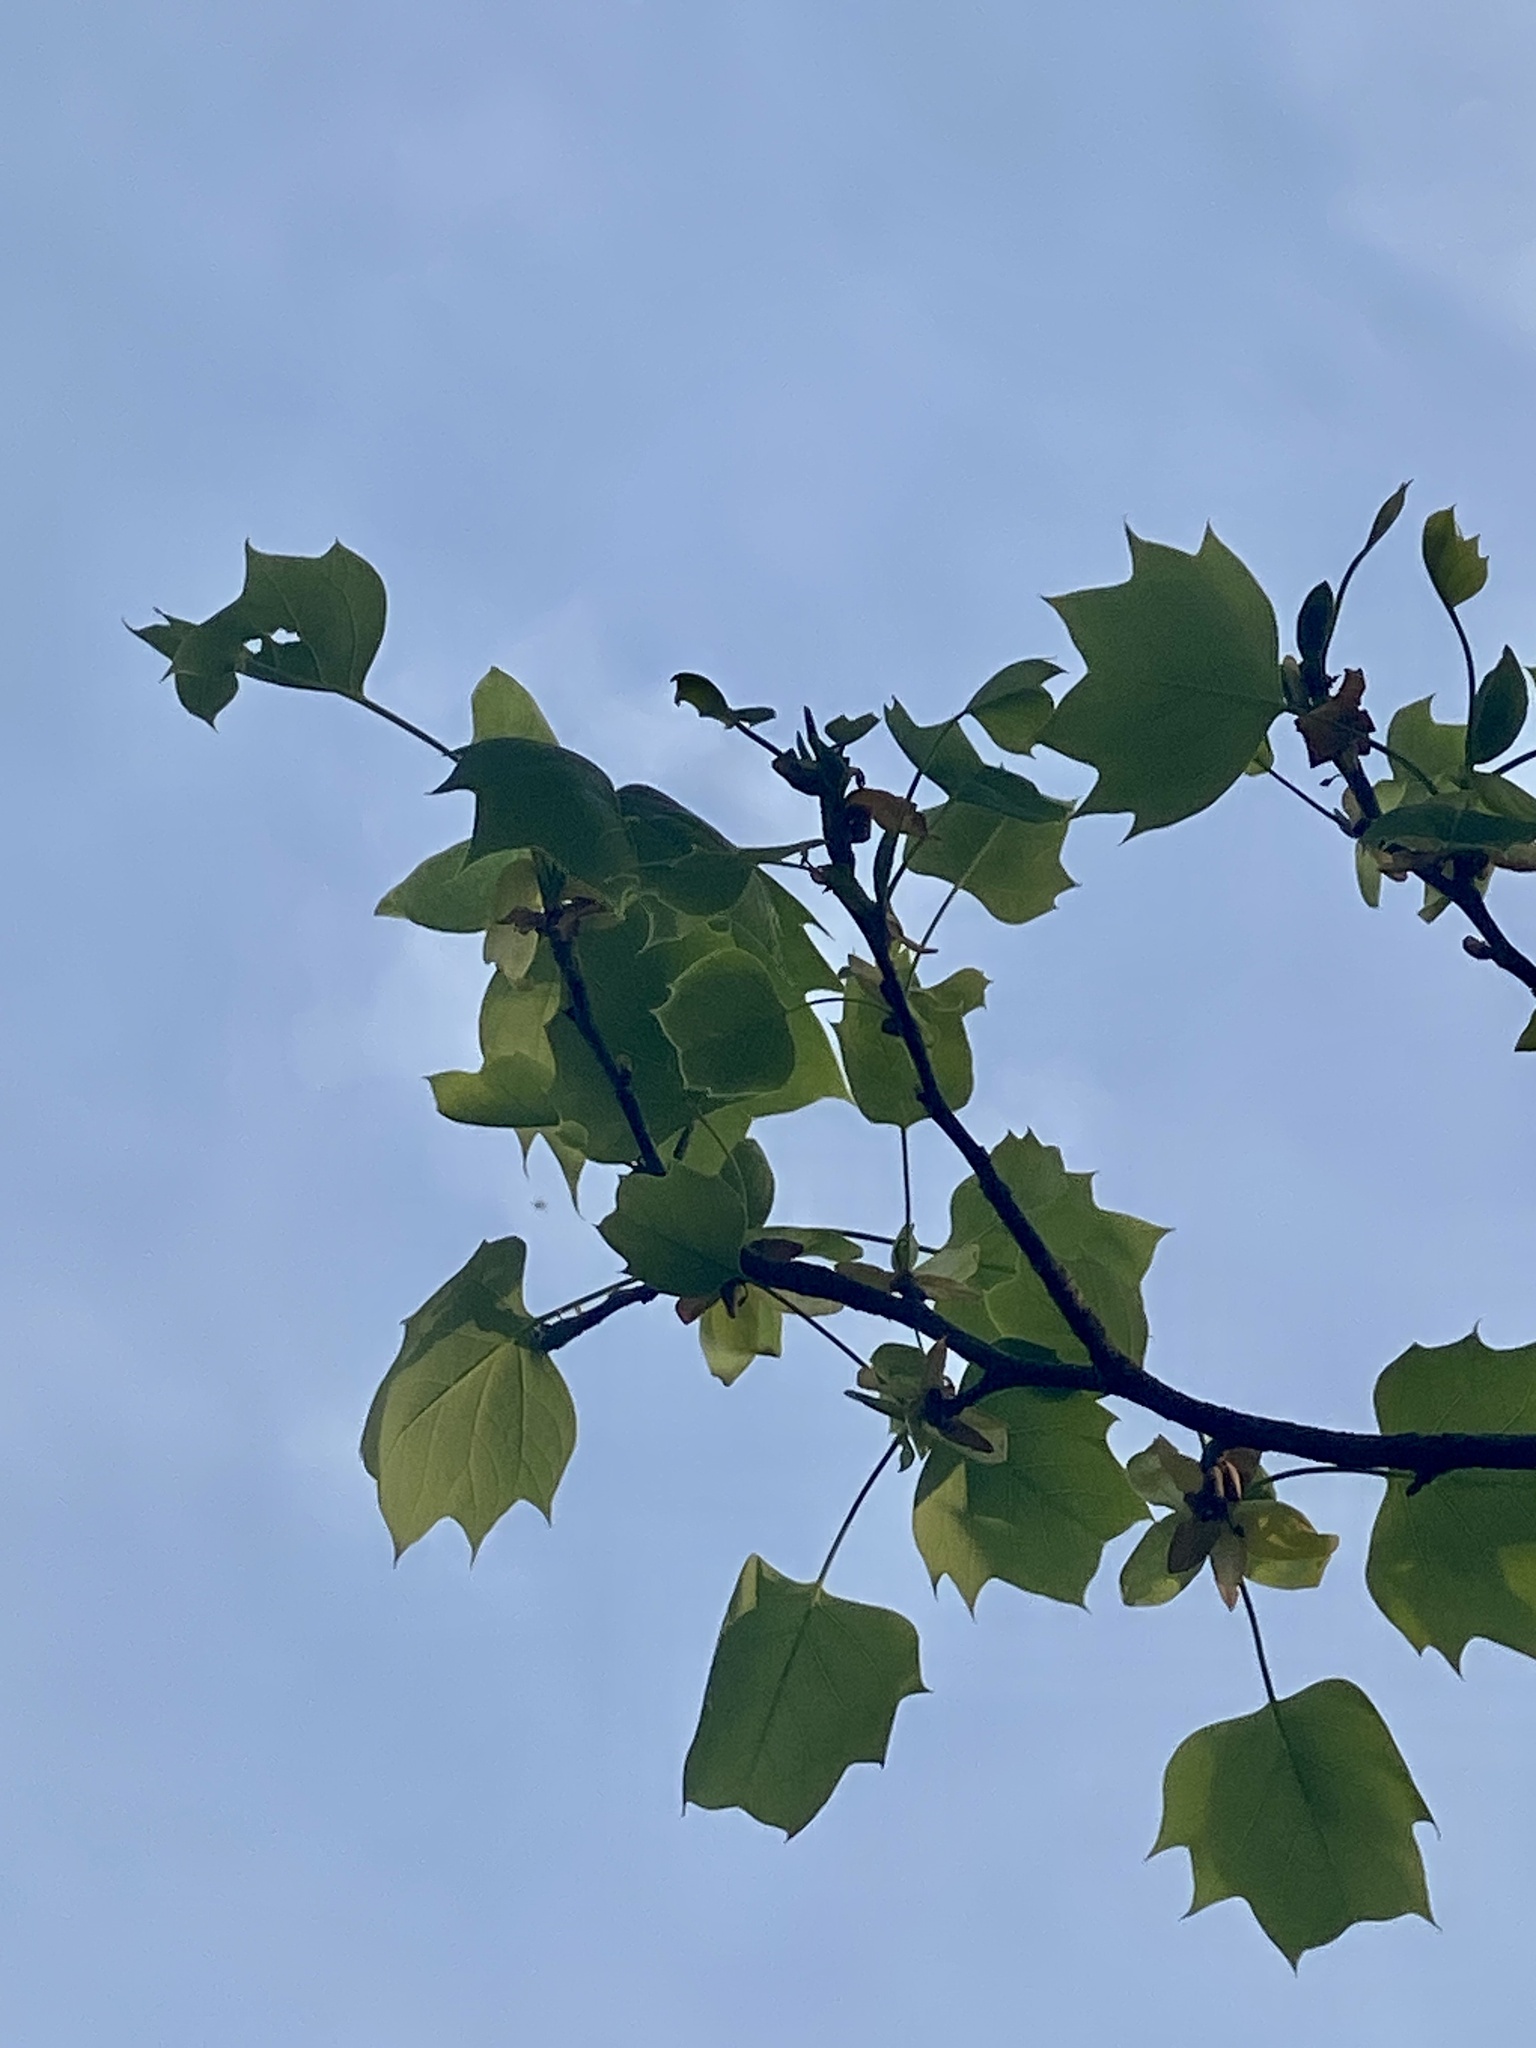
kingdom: Plantae
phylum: Tracheophyta
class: Magnoliopsida
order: Magnoliales
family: Magnoliaceae
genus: Liriodendron
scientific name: Liriodendron tulipifera
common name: Tulip tree
